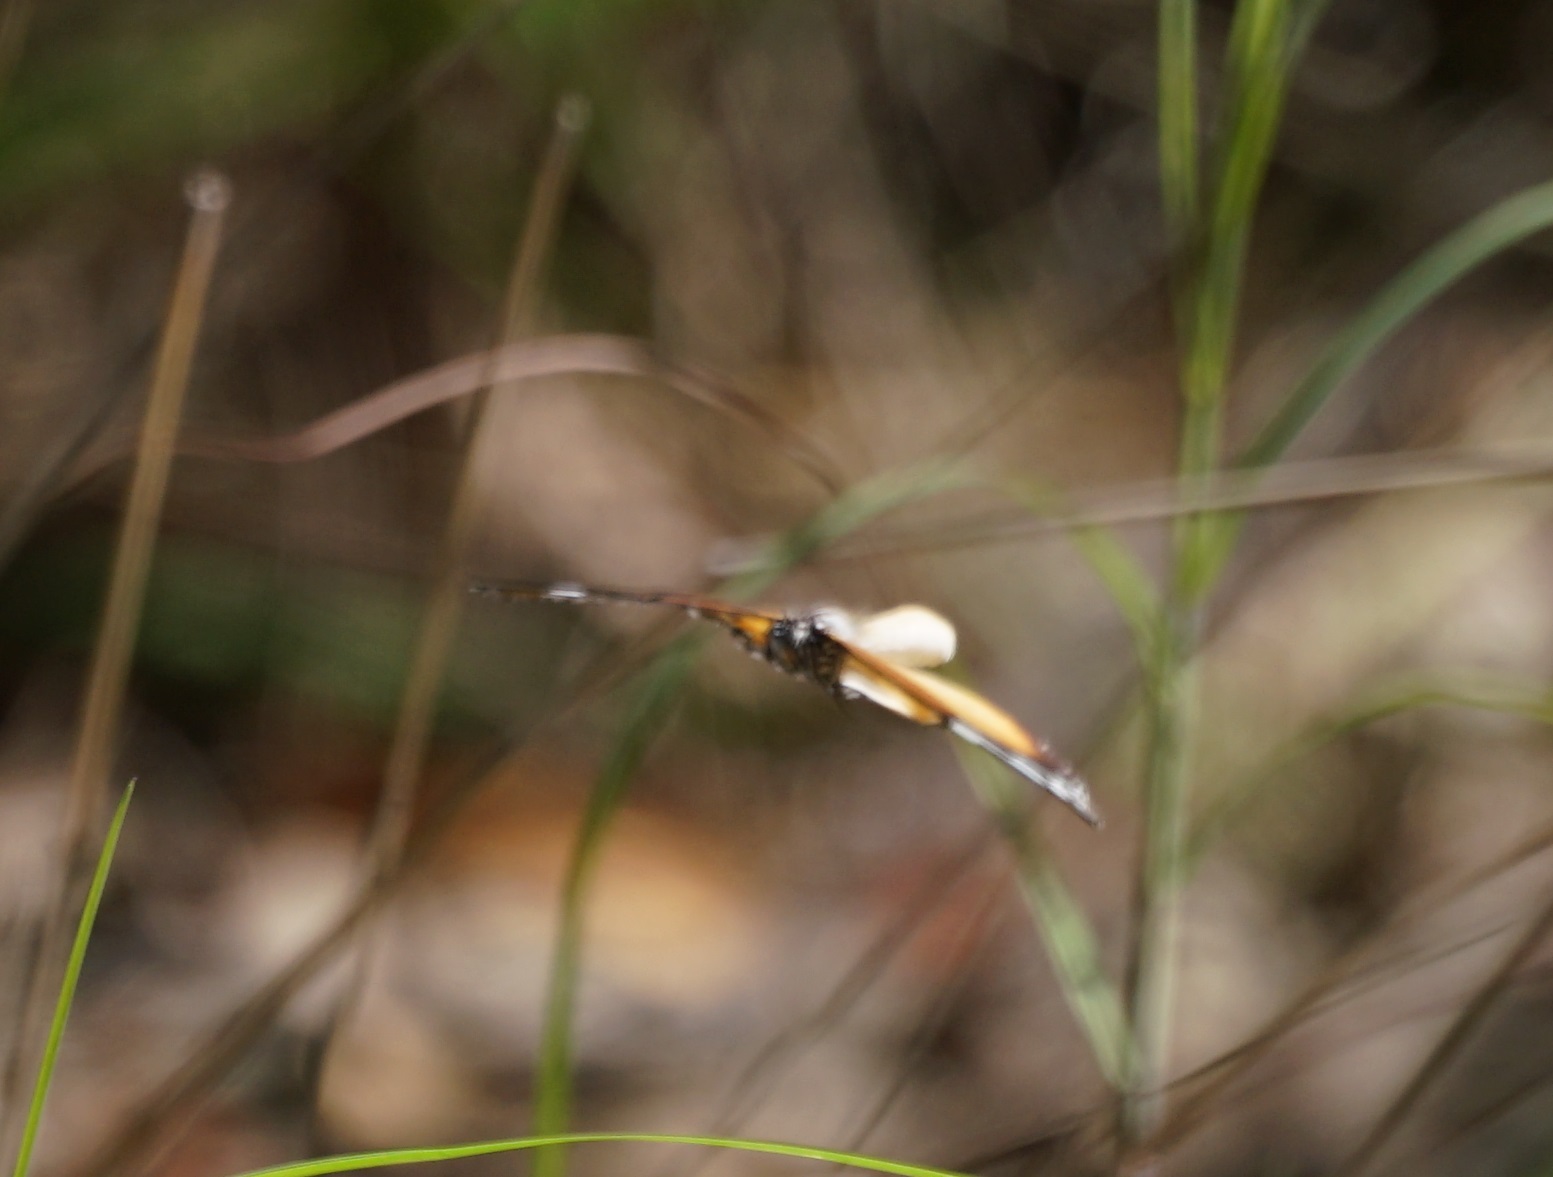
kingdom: Animalia
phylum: Arthropoda
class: Insecta
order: Lepidoptera
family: Nymphalidae
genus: Danaus
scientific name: Danaus chrysippus
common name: Plain tiger
